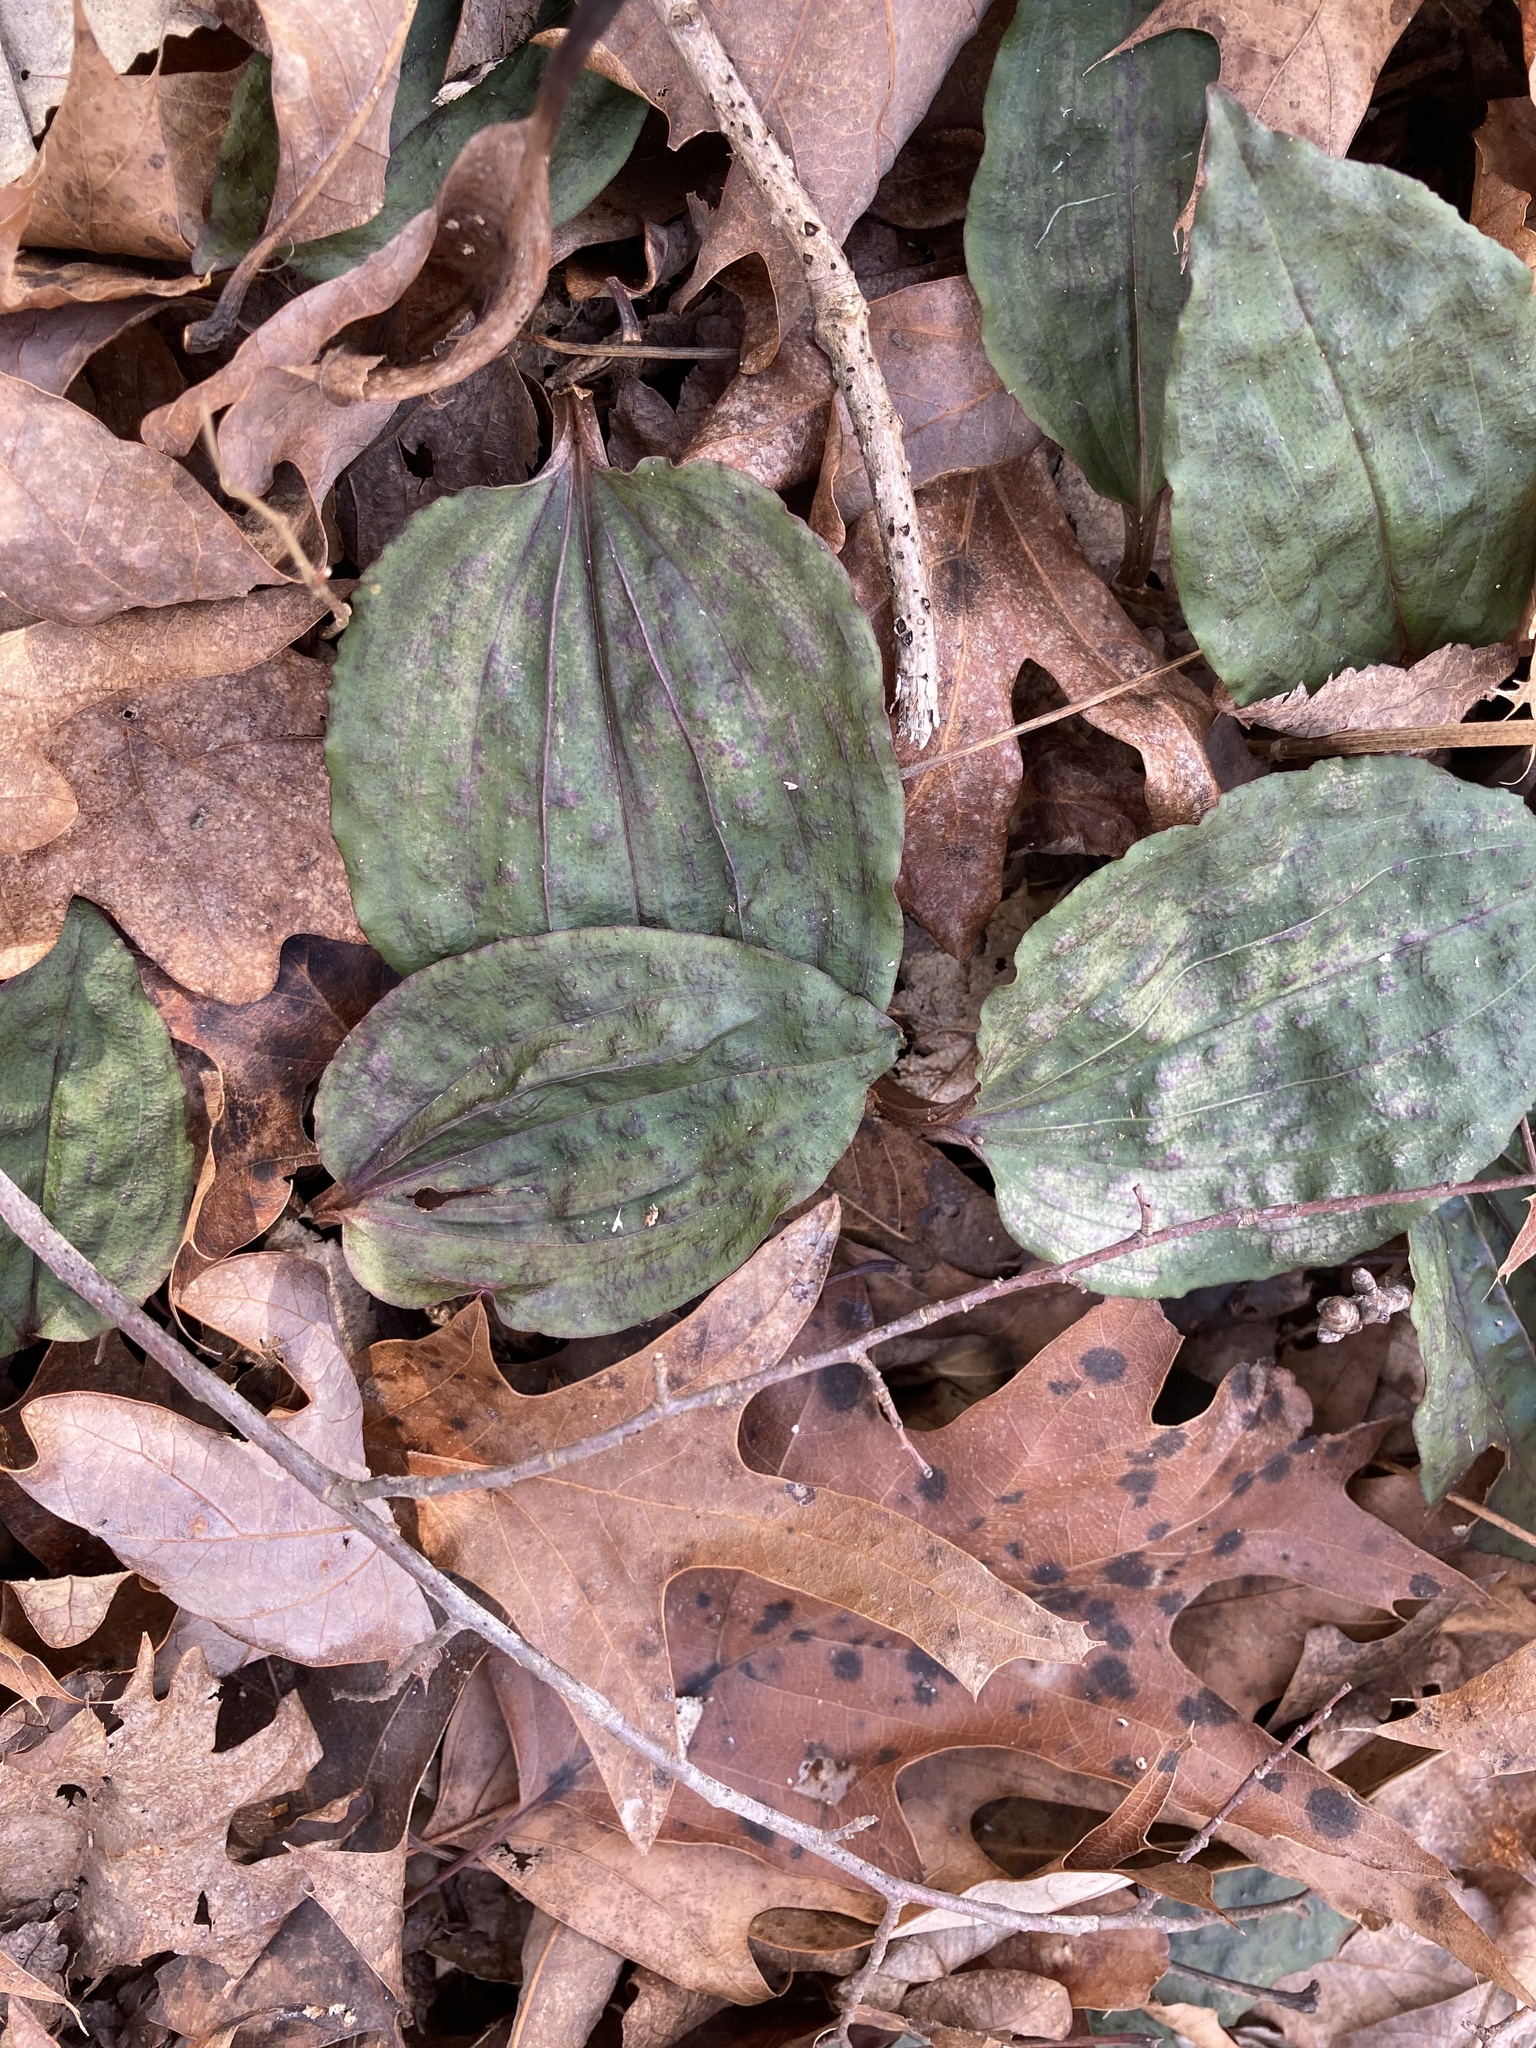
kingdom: Plantae
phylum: Tracheophyta
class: Liliopsida
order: Asparagales
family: Orchidaceae
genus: Tipularia
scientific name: Tipularia discolor
